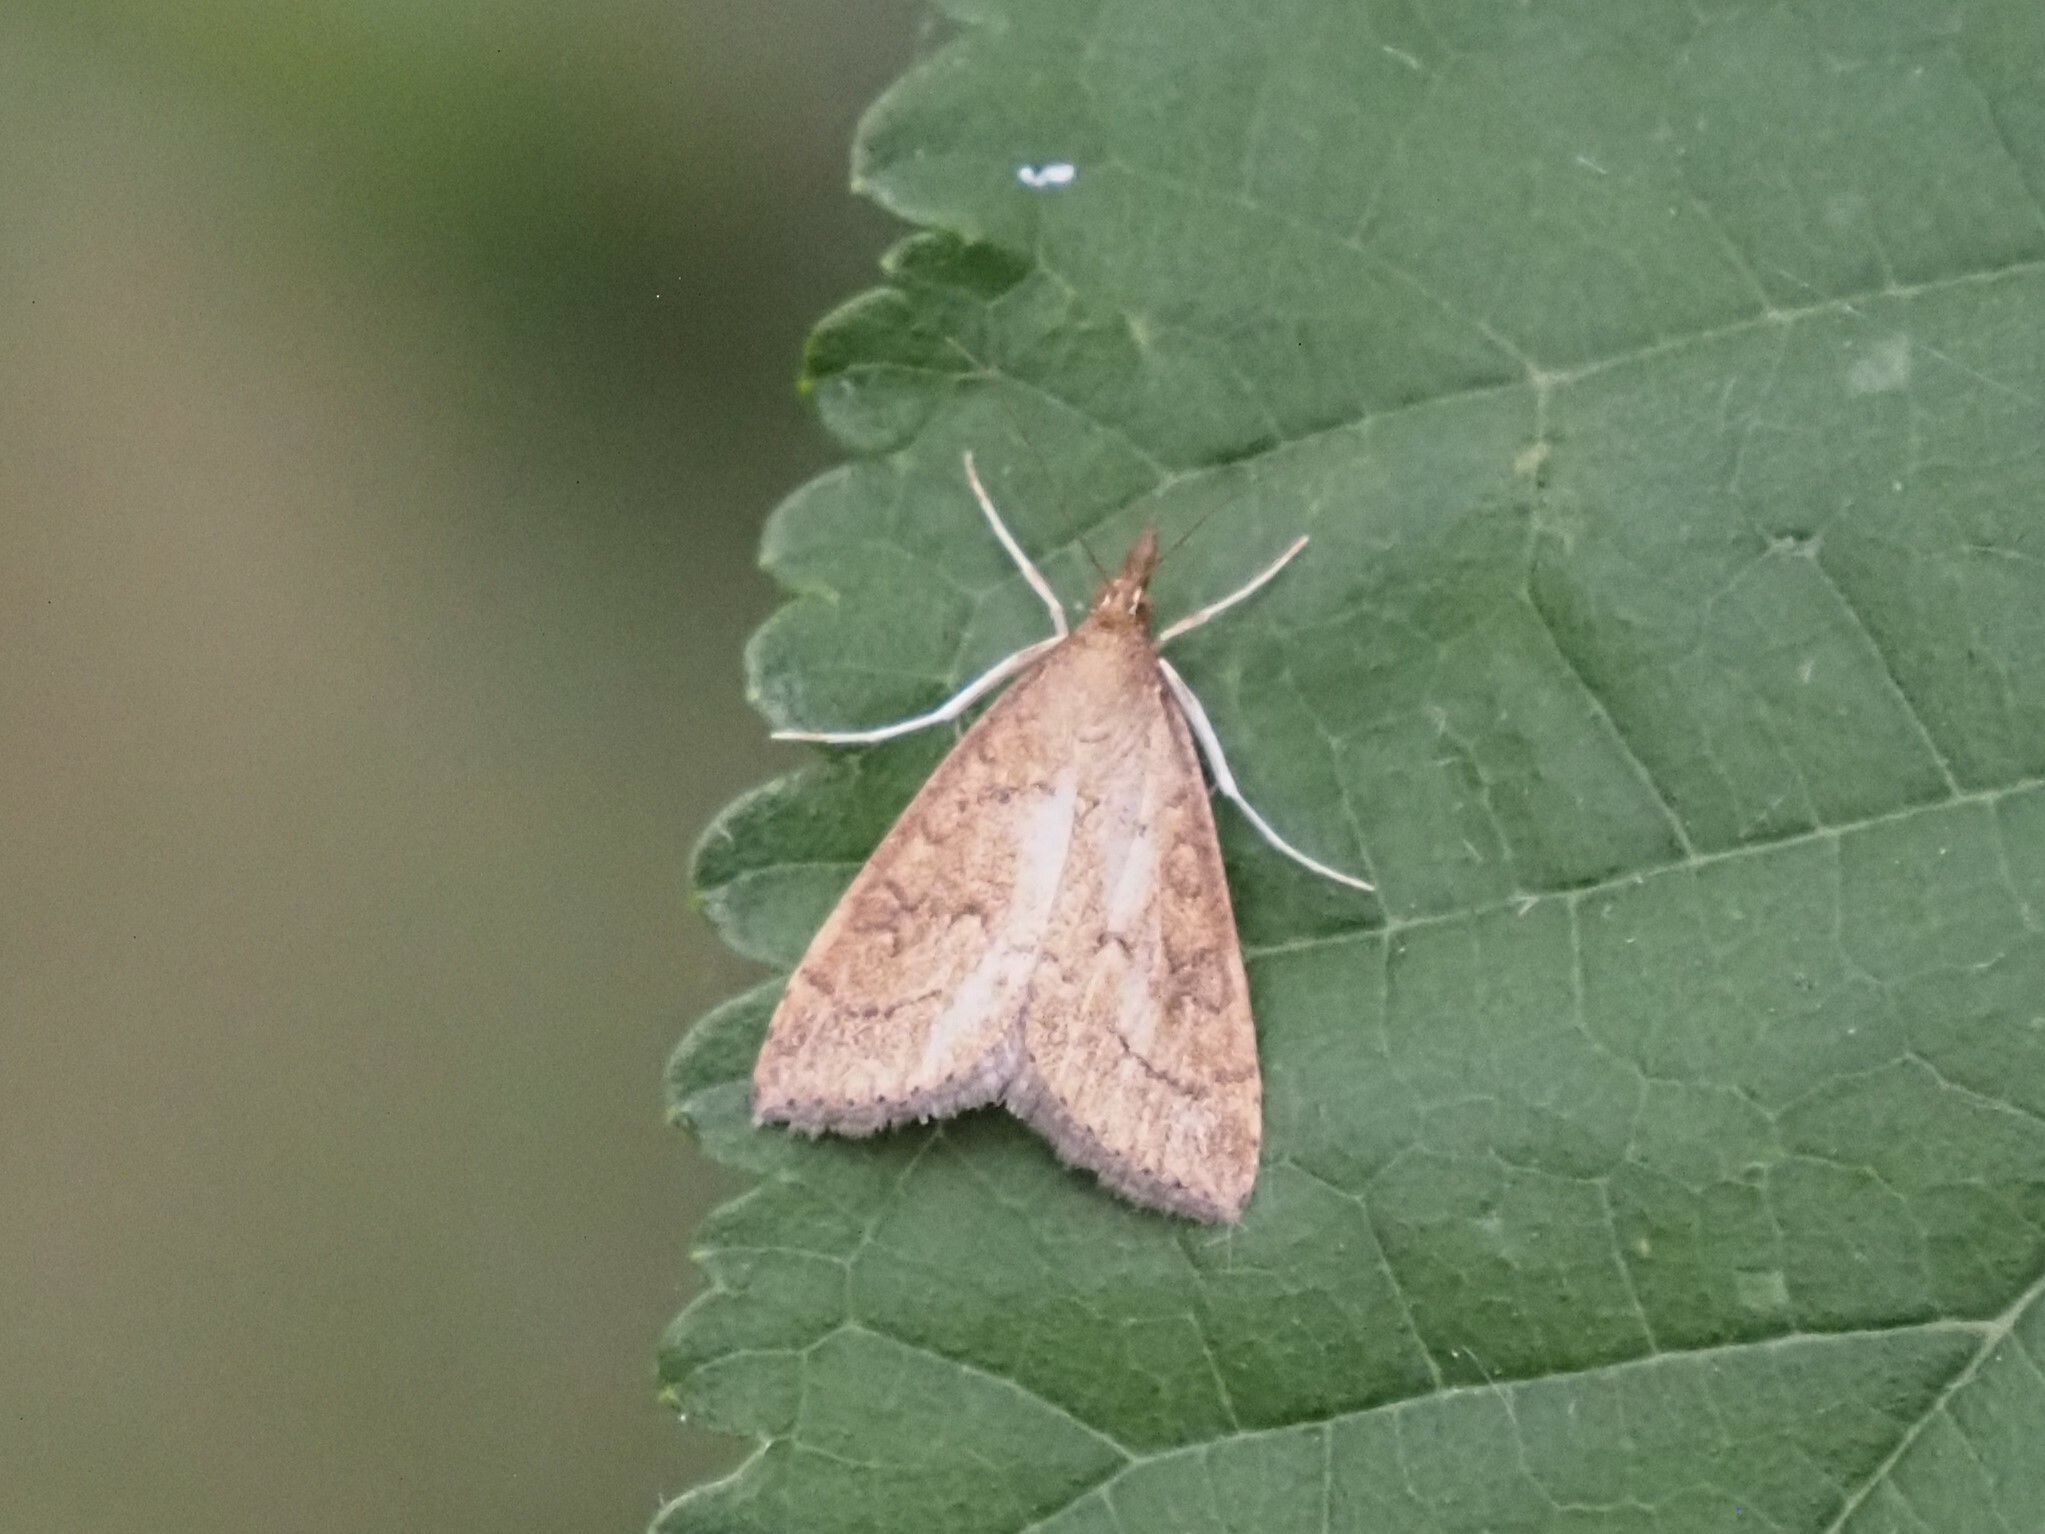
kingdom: Animalia
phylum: Arthropoda
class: Insecta
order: Lepidoptera
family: Crambidae
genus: Udea
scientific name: Udea rubigalis
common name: Celery leaftier moth
